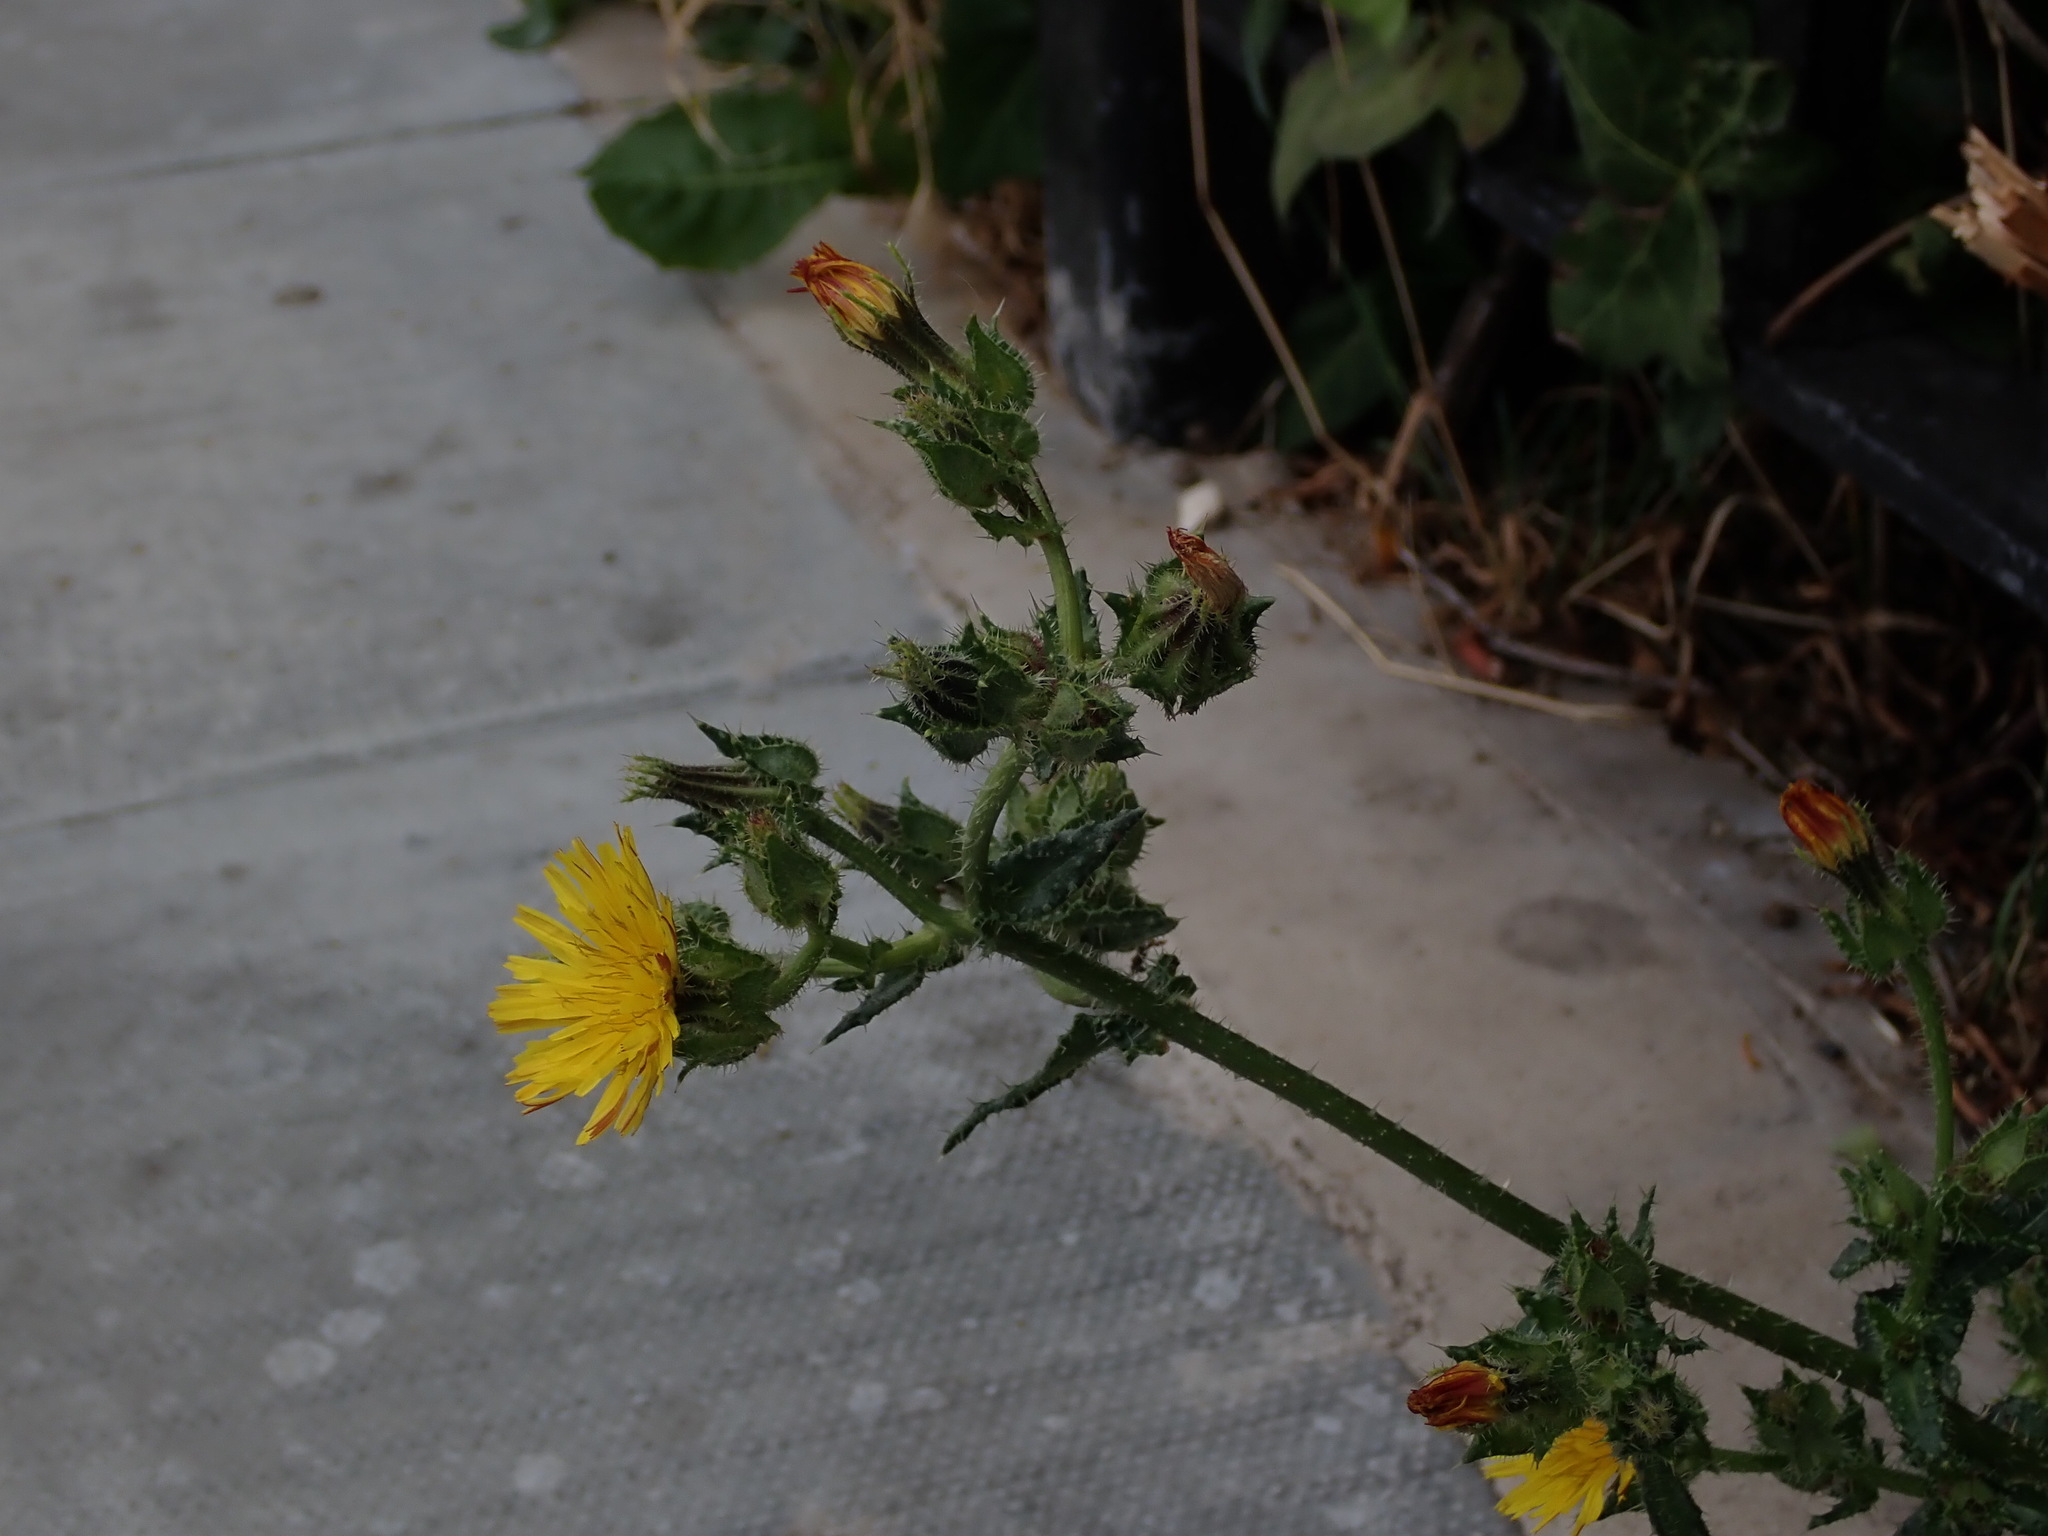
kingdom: Plantae
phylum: Tracheophyta
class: Magnoliopsida
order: Asterales
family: Asteraceae
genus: Helminthotheca
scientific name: Helminthotheca echioides
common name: Ox-tongue
